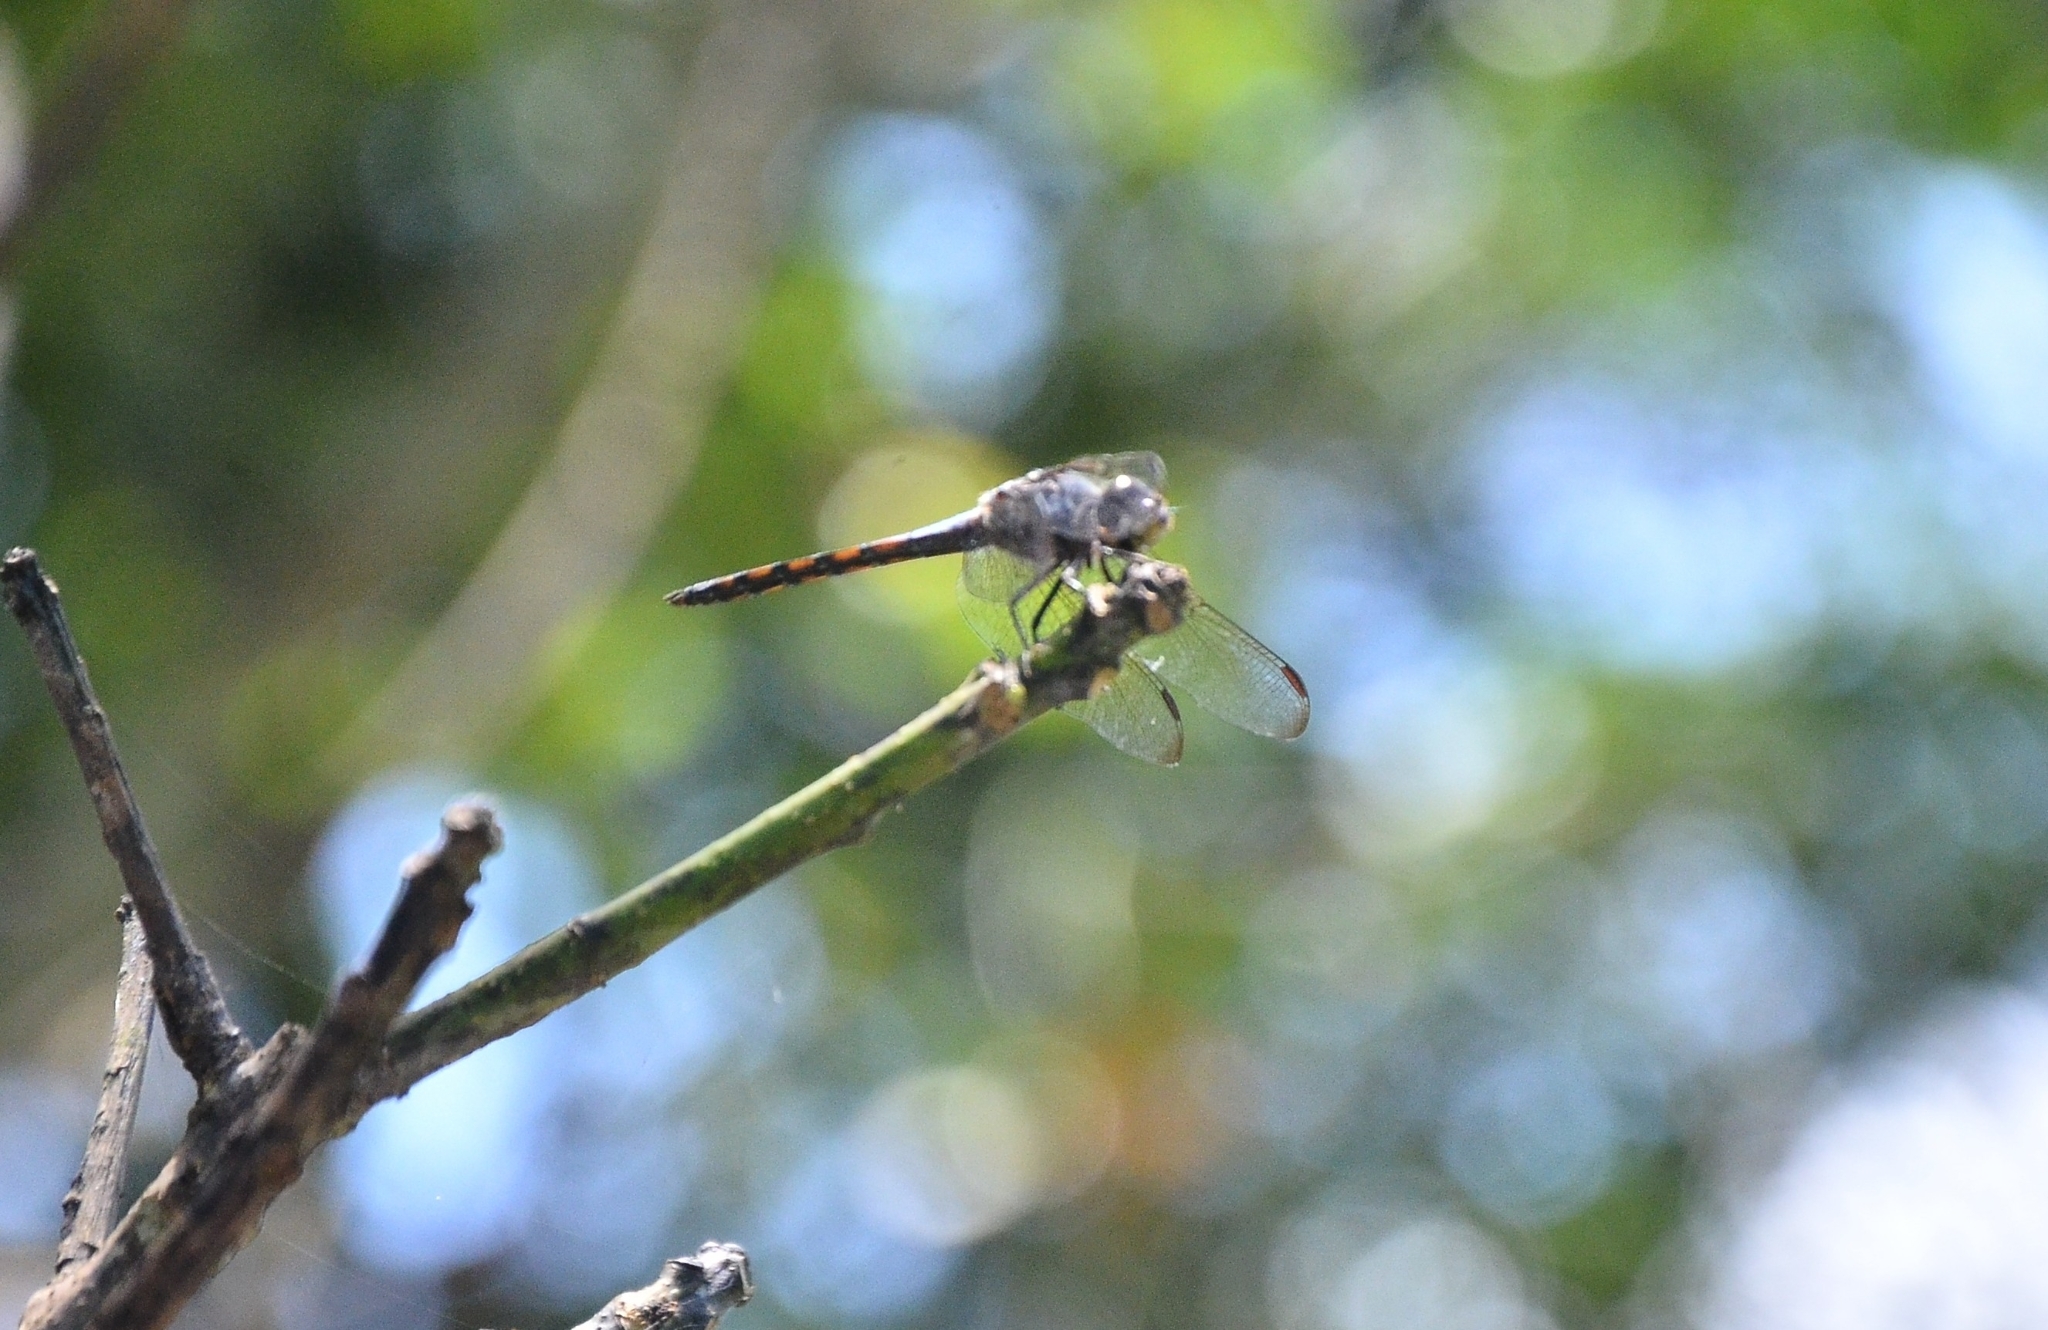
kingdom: Animalia
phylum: Arthropoda
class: Insecta
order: Odonata
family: Libellulidae
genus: Potamarcha
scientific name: Potamarcha congener
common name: Blue chaser
